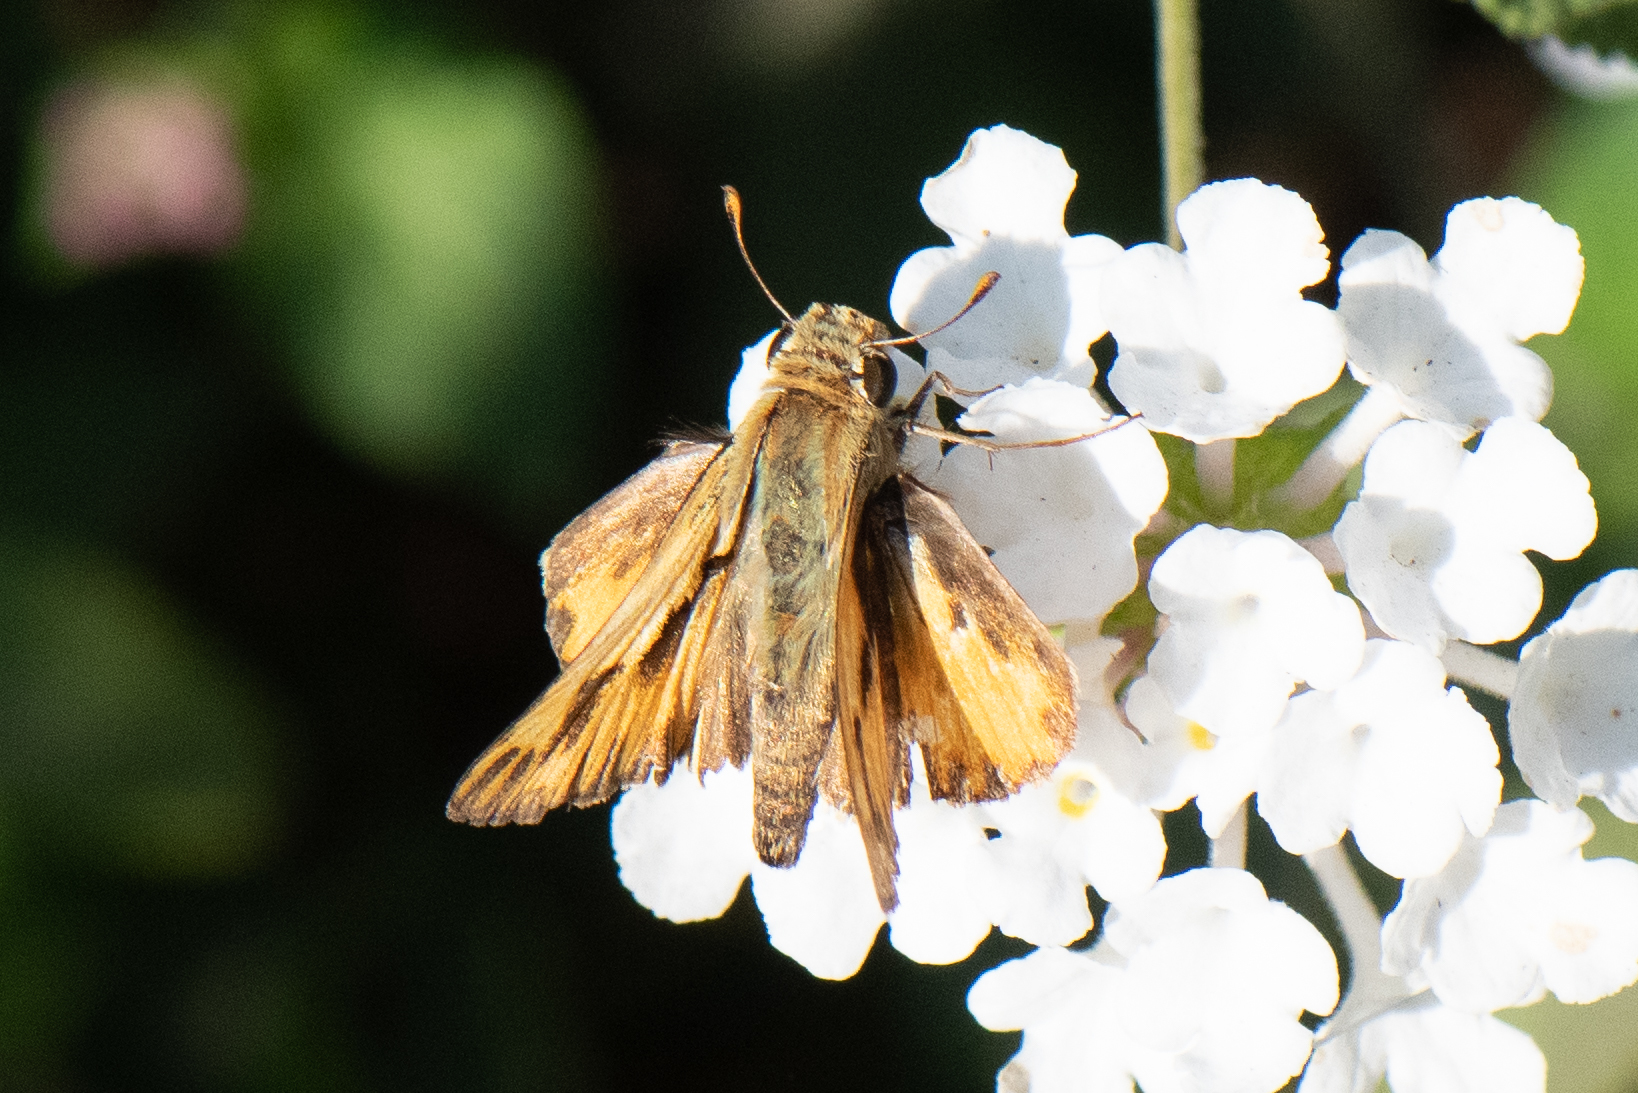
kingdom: Animalia
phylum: Arthropoda
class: Insecta
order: Lepidoptera
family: Hesperiidae
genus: Hylephila
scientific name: Hylephila phyleus
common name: Fiery skipper
